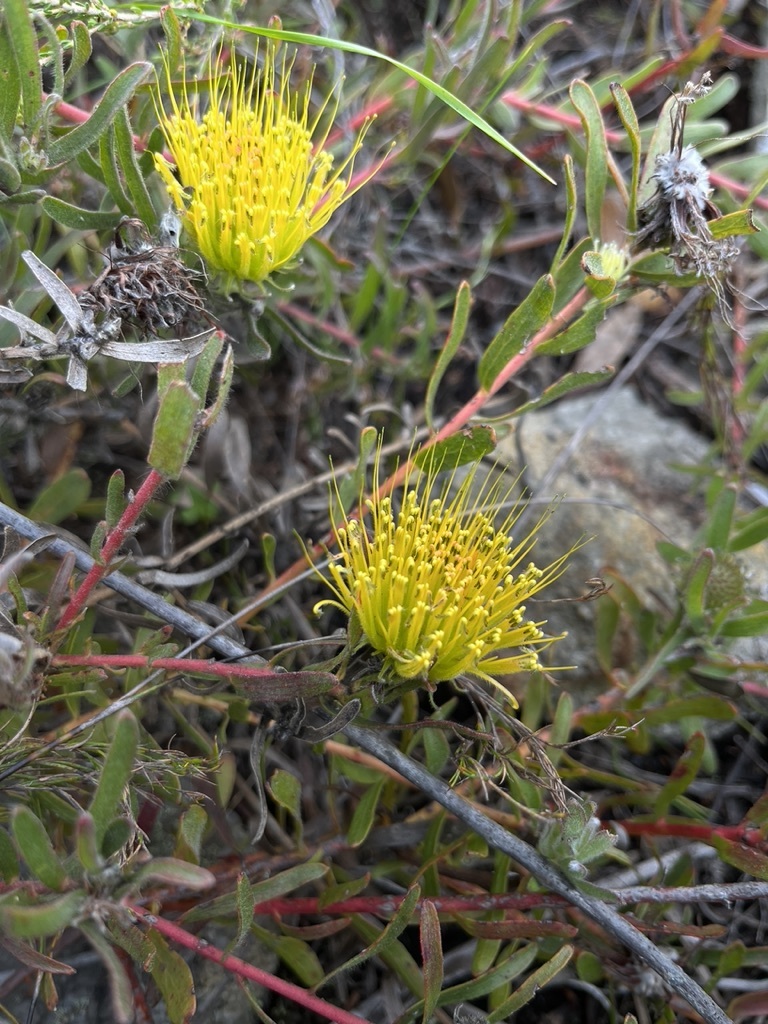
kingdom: Plantae
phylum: Tracheophyta
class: Magnoliopsida
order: Proteales
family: Proteaceae
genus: Leucospermum
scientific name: Leucospermum gracile
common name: Hermanus pincushion
